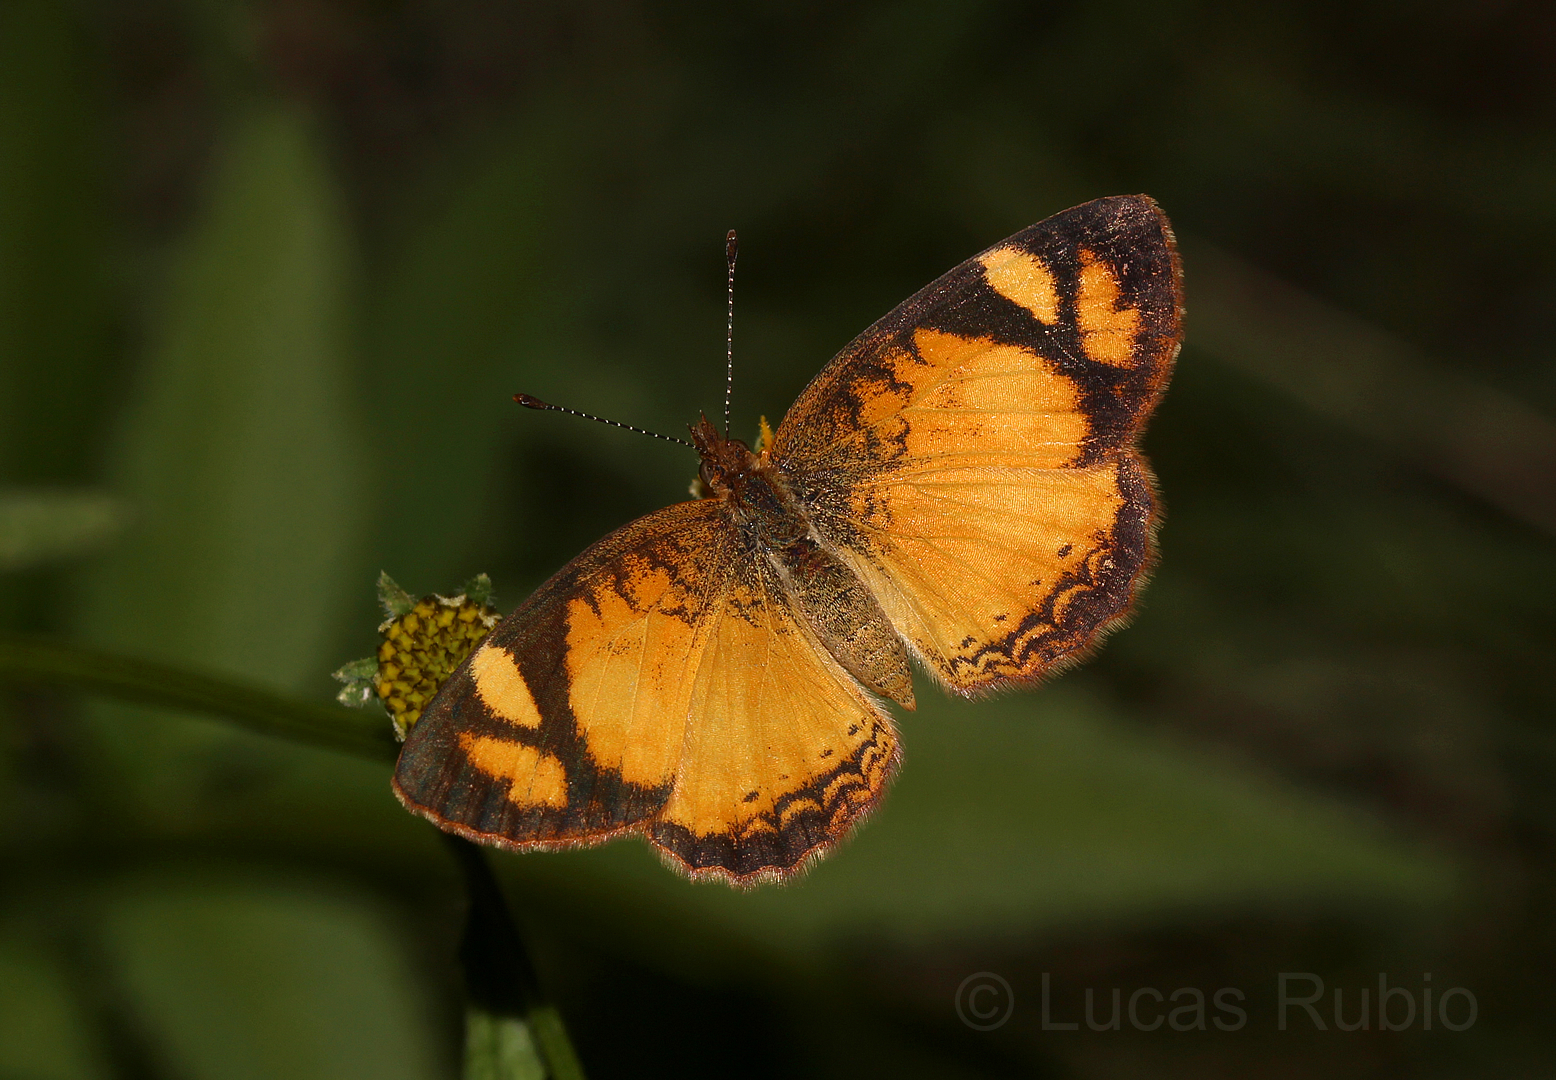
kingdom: Animalia
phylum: Arthropoda
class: Insecta
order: Lepidoptera
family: Nymphalidae
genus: Tegosa
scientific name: Tegosa claudina
